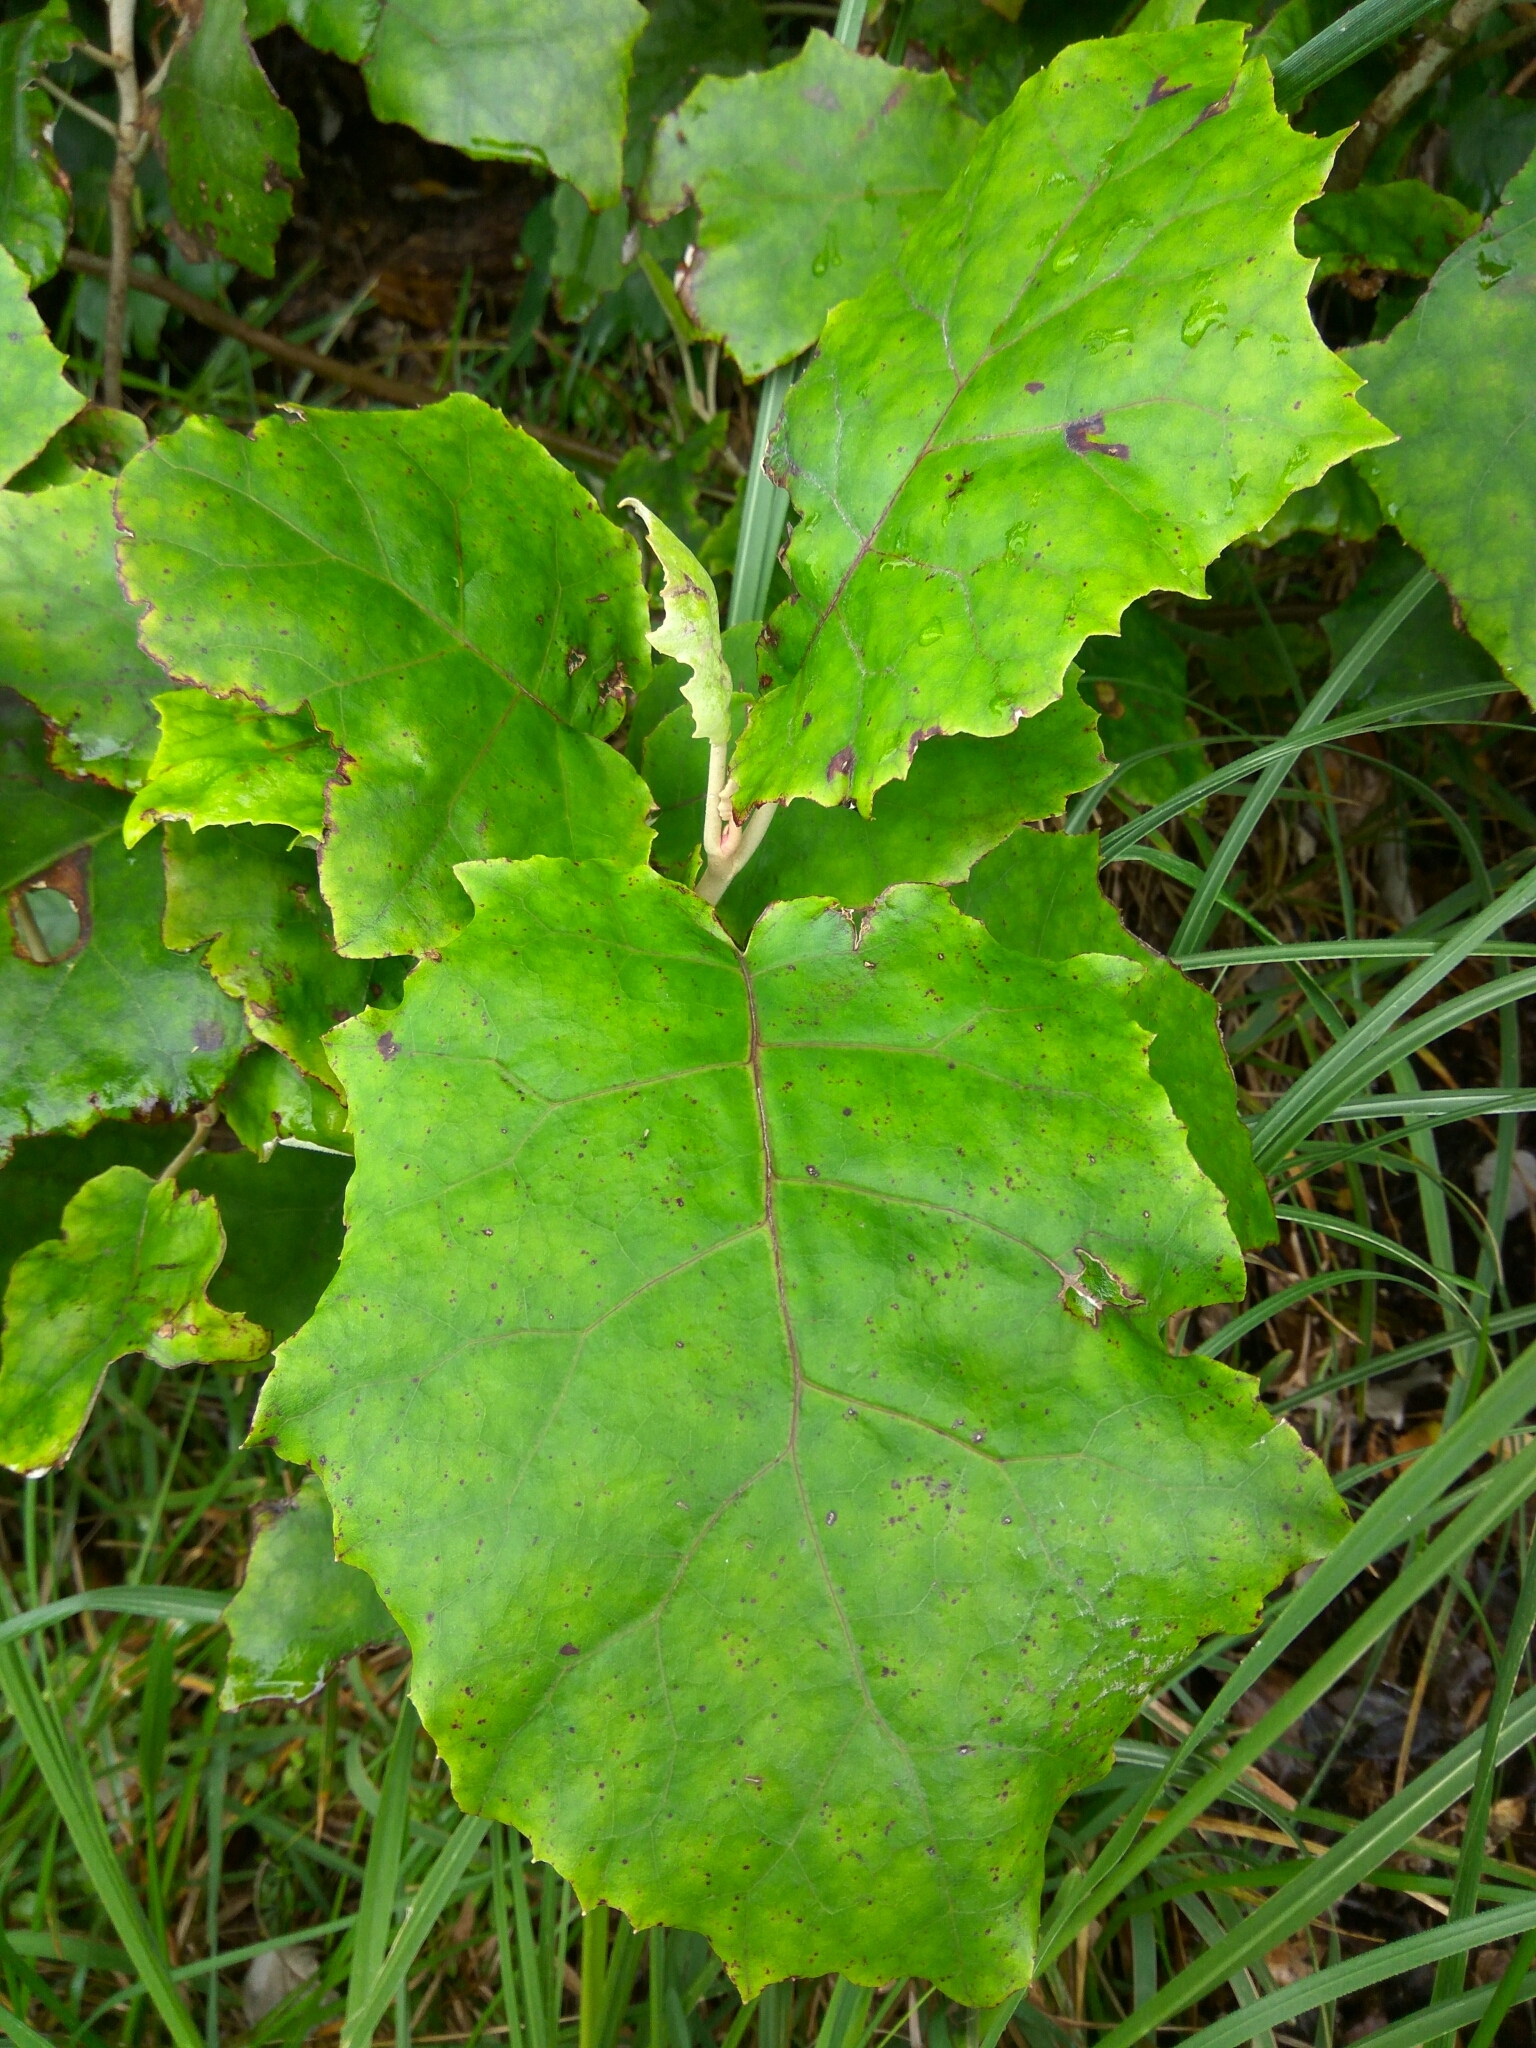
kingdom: Plantae
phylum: Tracheophyta
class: Magnoliopsida
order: Asterales
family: Asteraceae
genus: Brachyglottis
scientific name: Brachyglottis repanda
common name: Hedge ragwort
